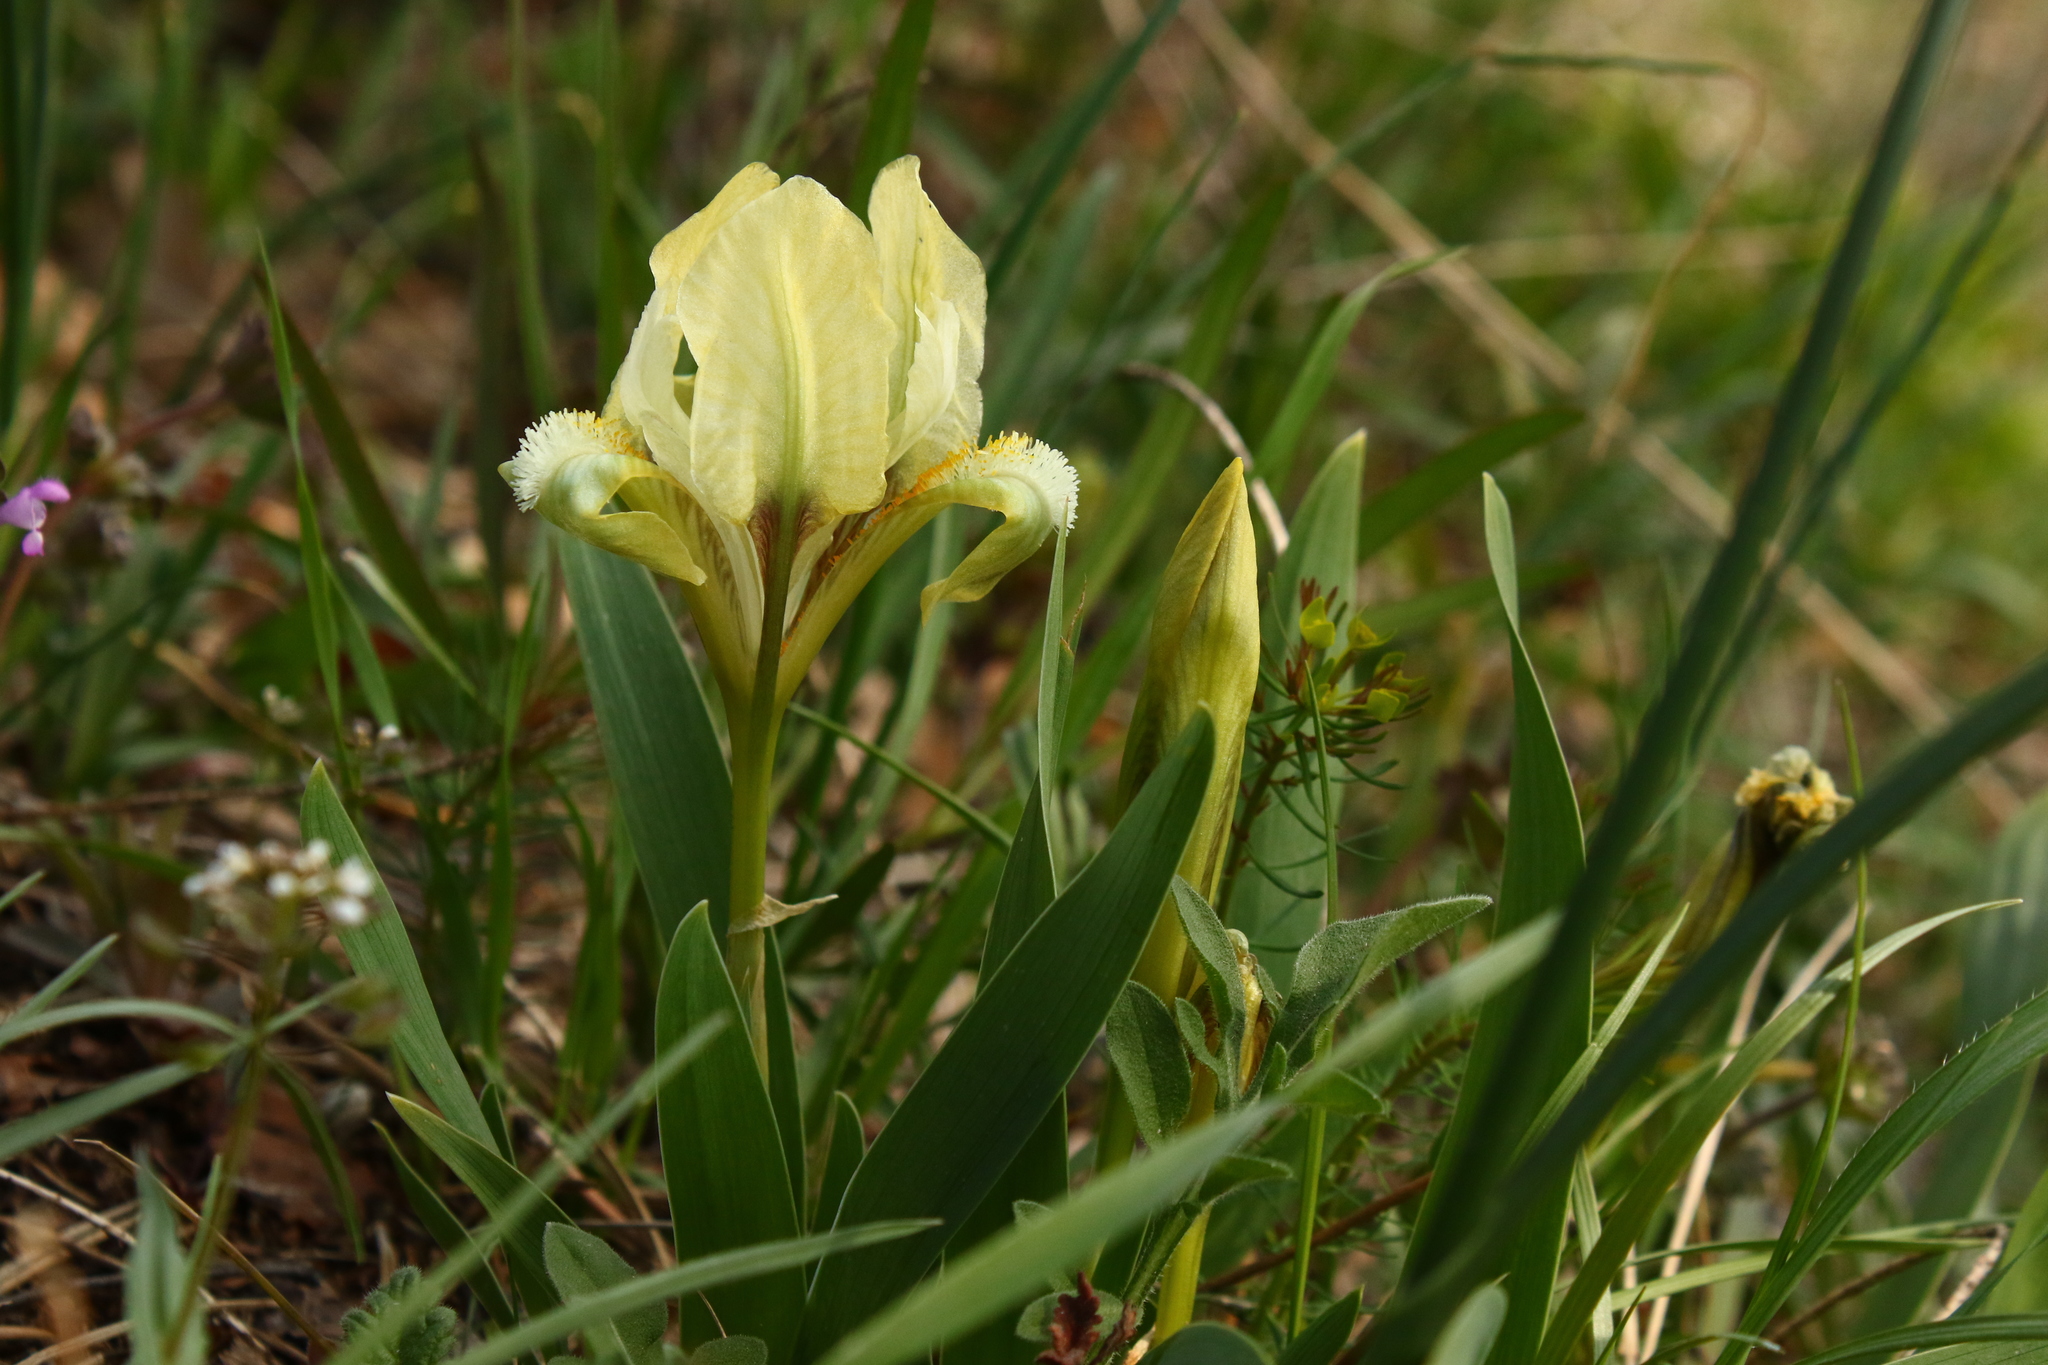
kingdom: Plantae
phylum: Tracheophyta
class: Liliopsida
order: Asparagales
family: Iridaceae
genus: Iris
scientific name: Iris pumila
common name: Dwarf iris
